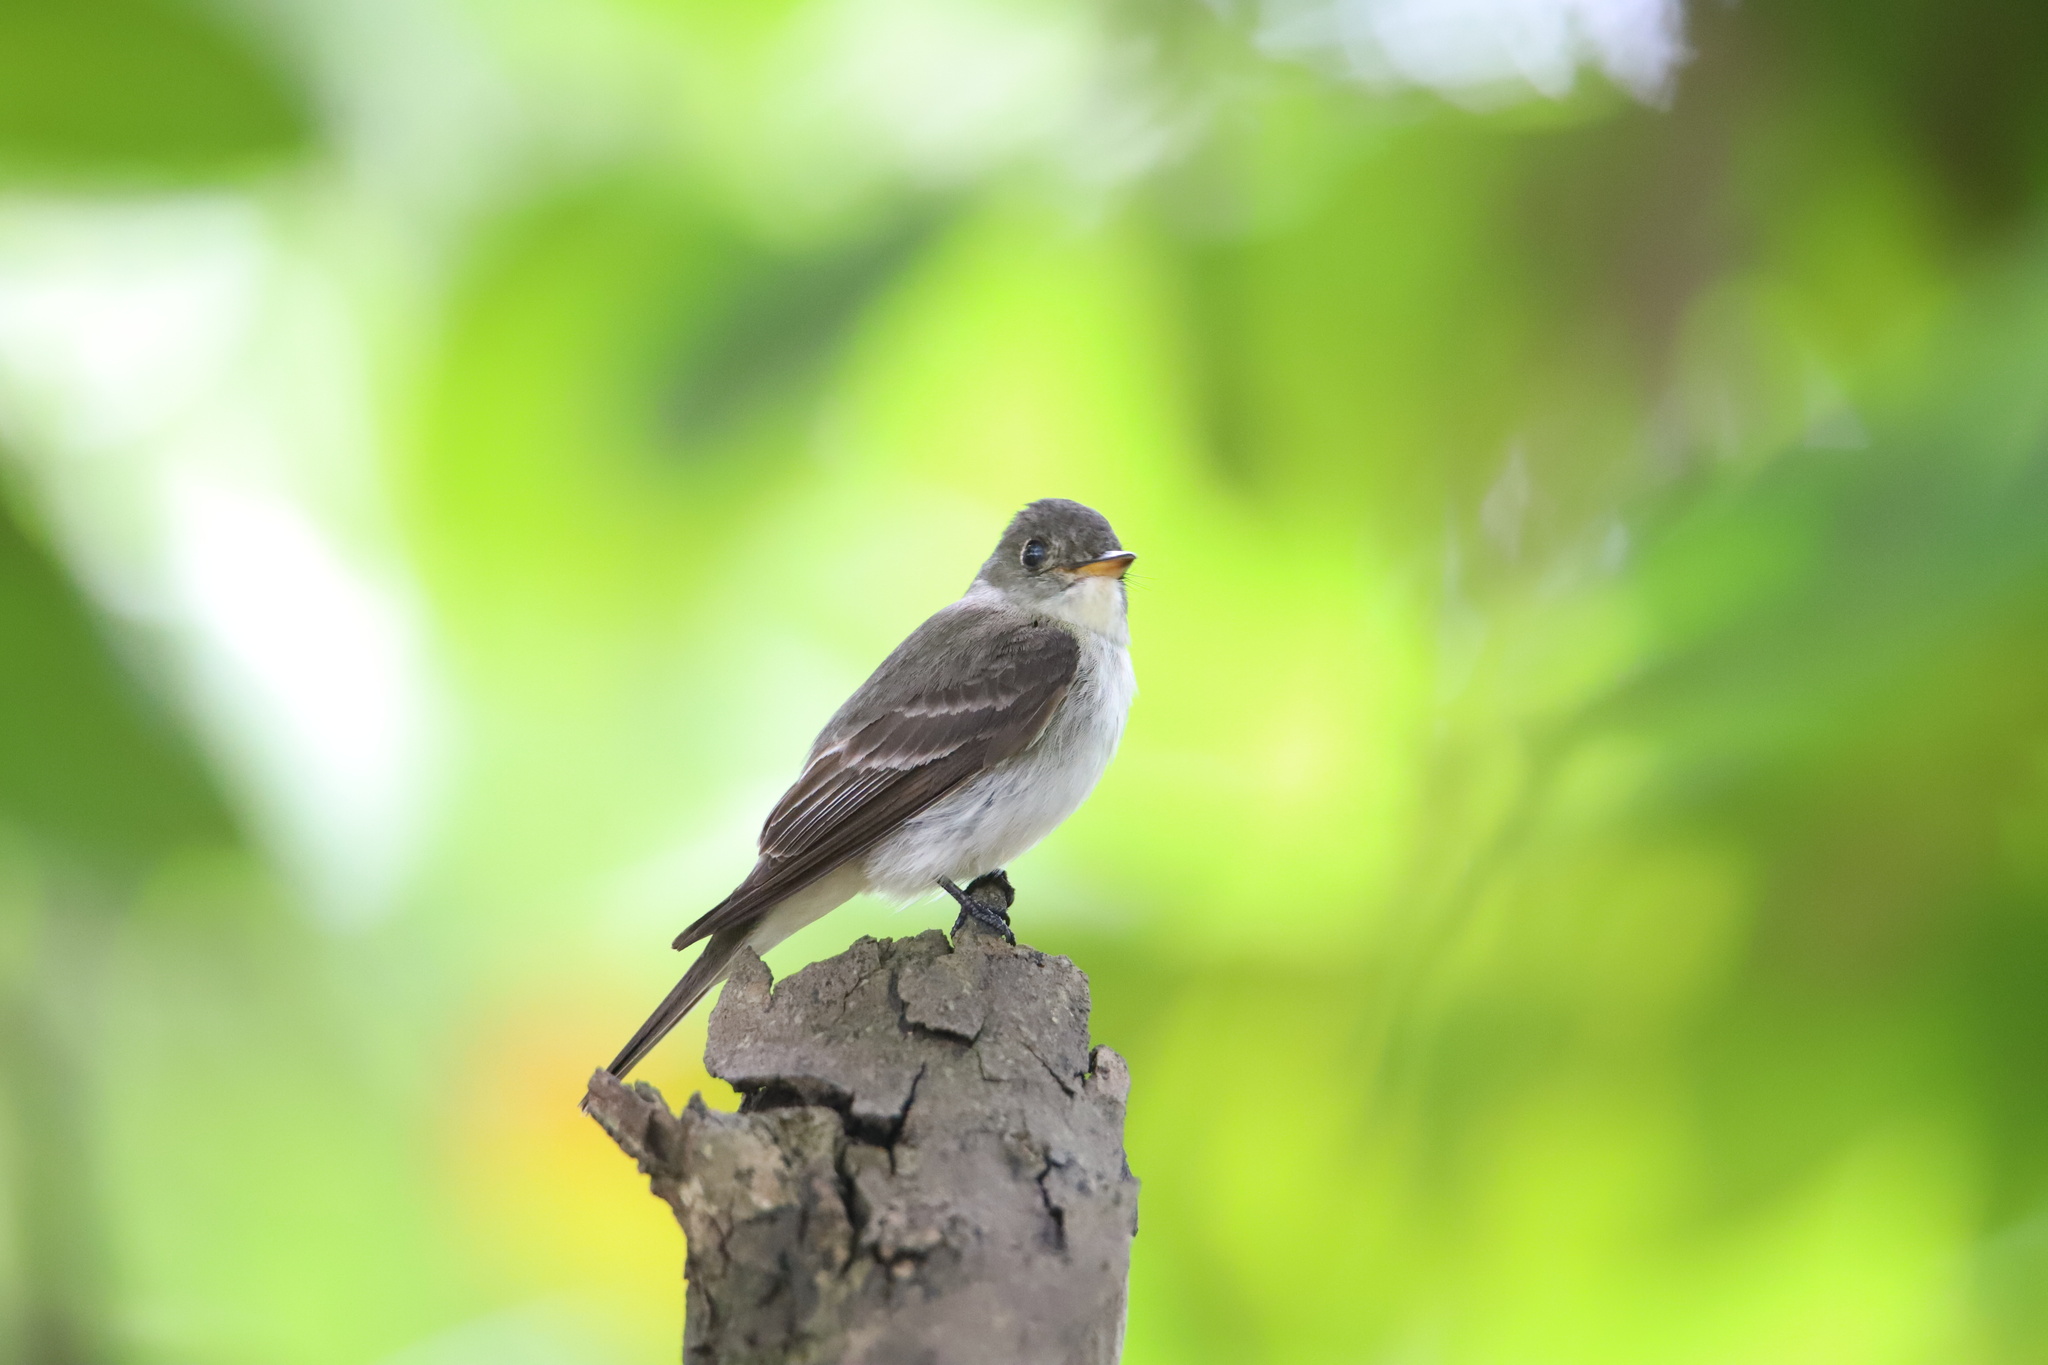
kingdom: Animalia
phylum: Chordata
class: Aves
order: Passeriformes
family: Tyrannidae
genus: Contopus
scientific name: Contopus virens
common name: Eastern wood-pewee
